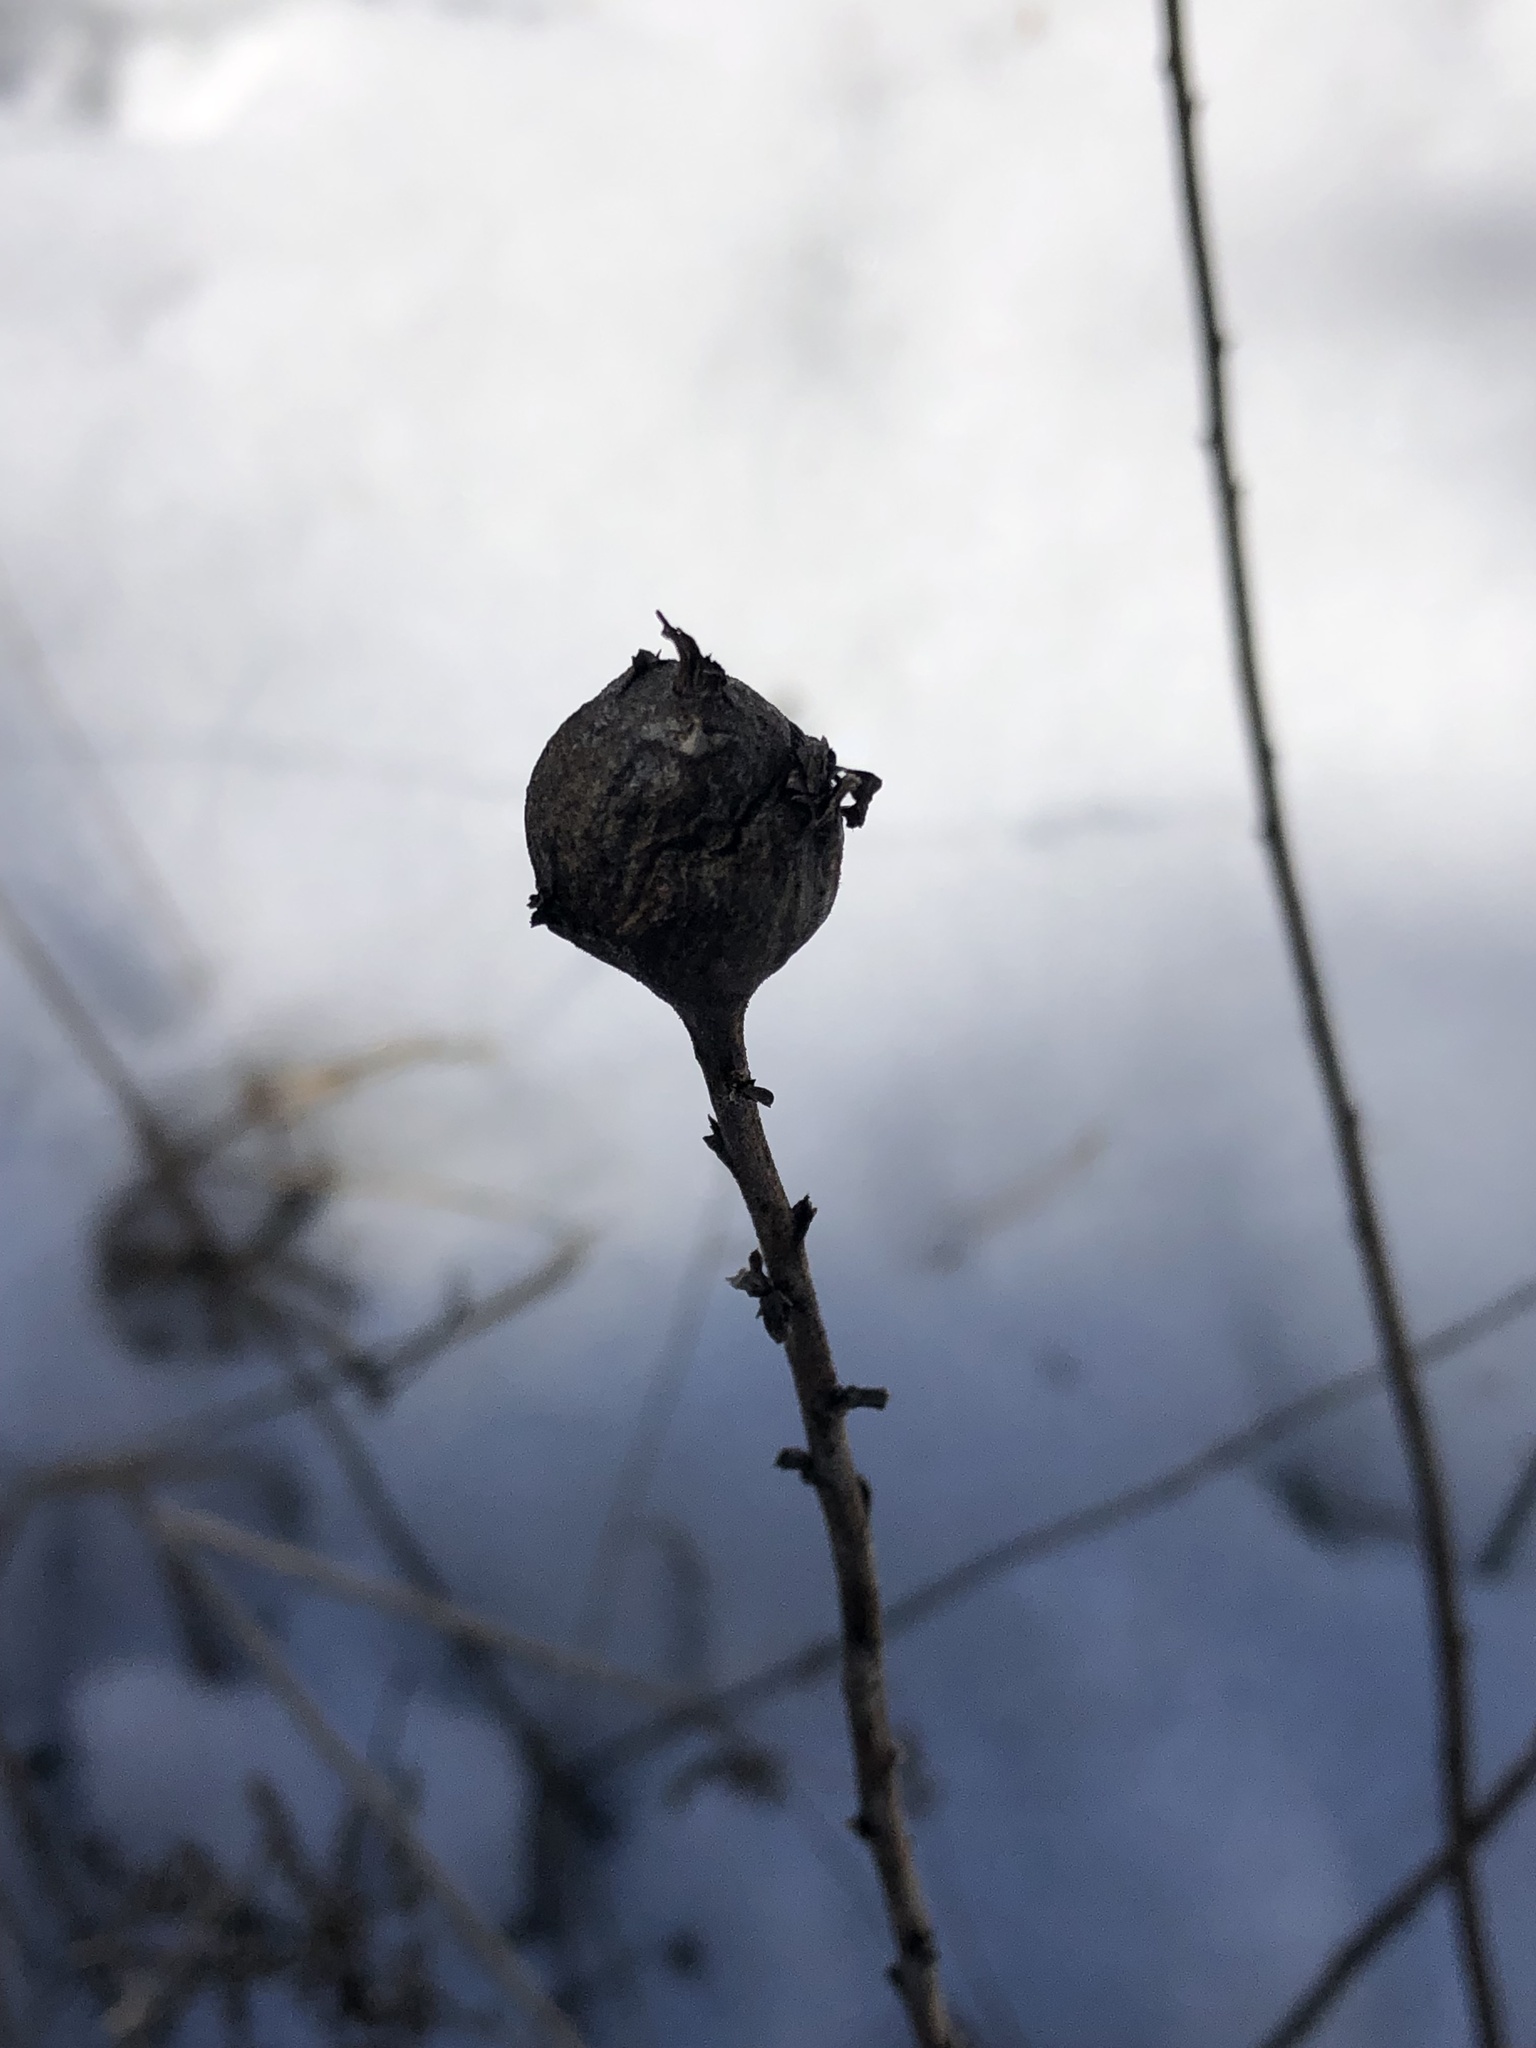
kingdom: Animalia
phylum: Arthropoda
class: Insecta
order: Diptera
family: Tephritidae
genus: Eurosta
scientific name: Eurosta solidaginis
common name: Goldenrod gall fly
